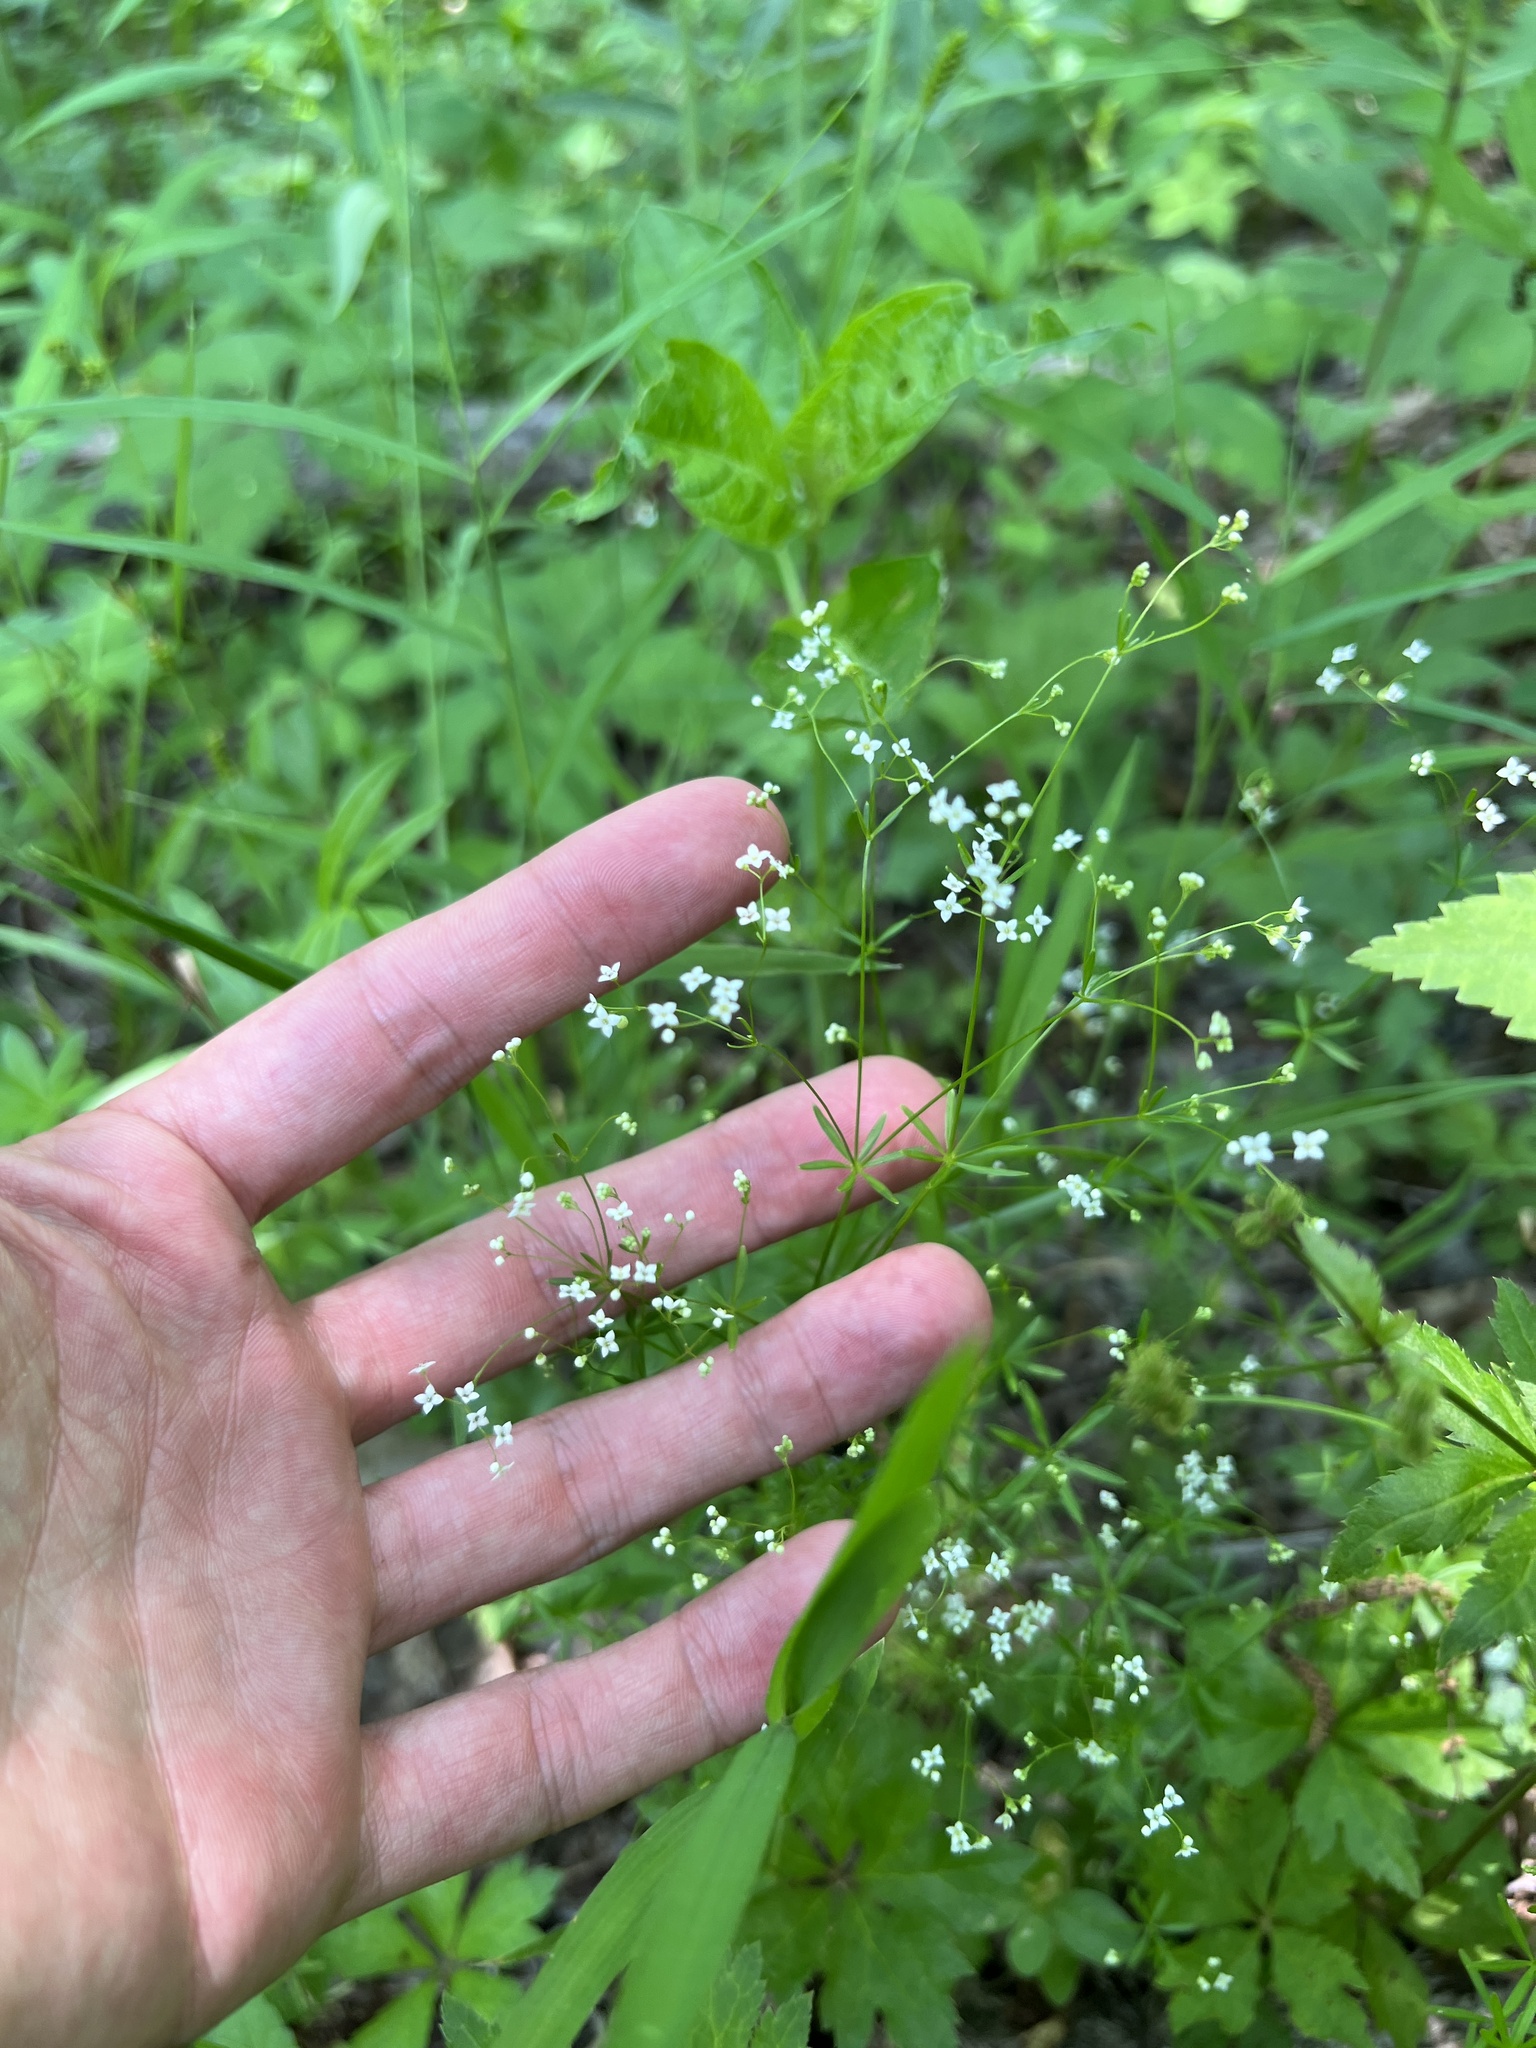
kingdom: Plantae
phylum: Tracheophyta
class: Magnoliopsida
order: Gentianales
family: Rubiaceae
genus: Galium
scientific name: Galium concinnum
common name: Shining bedstraw
